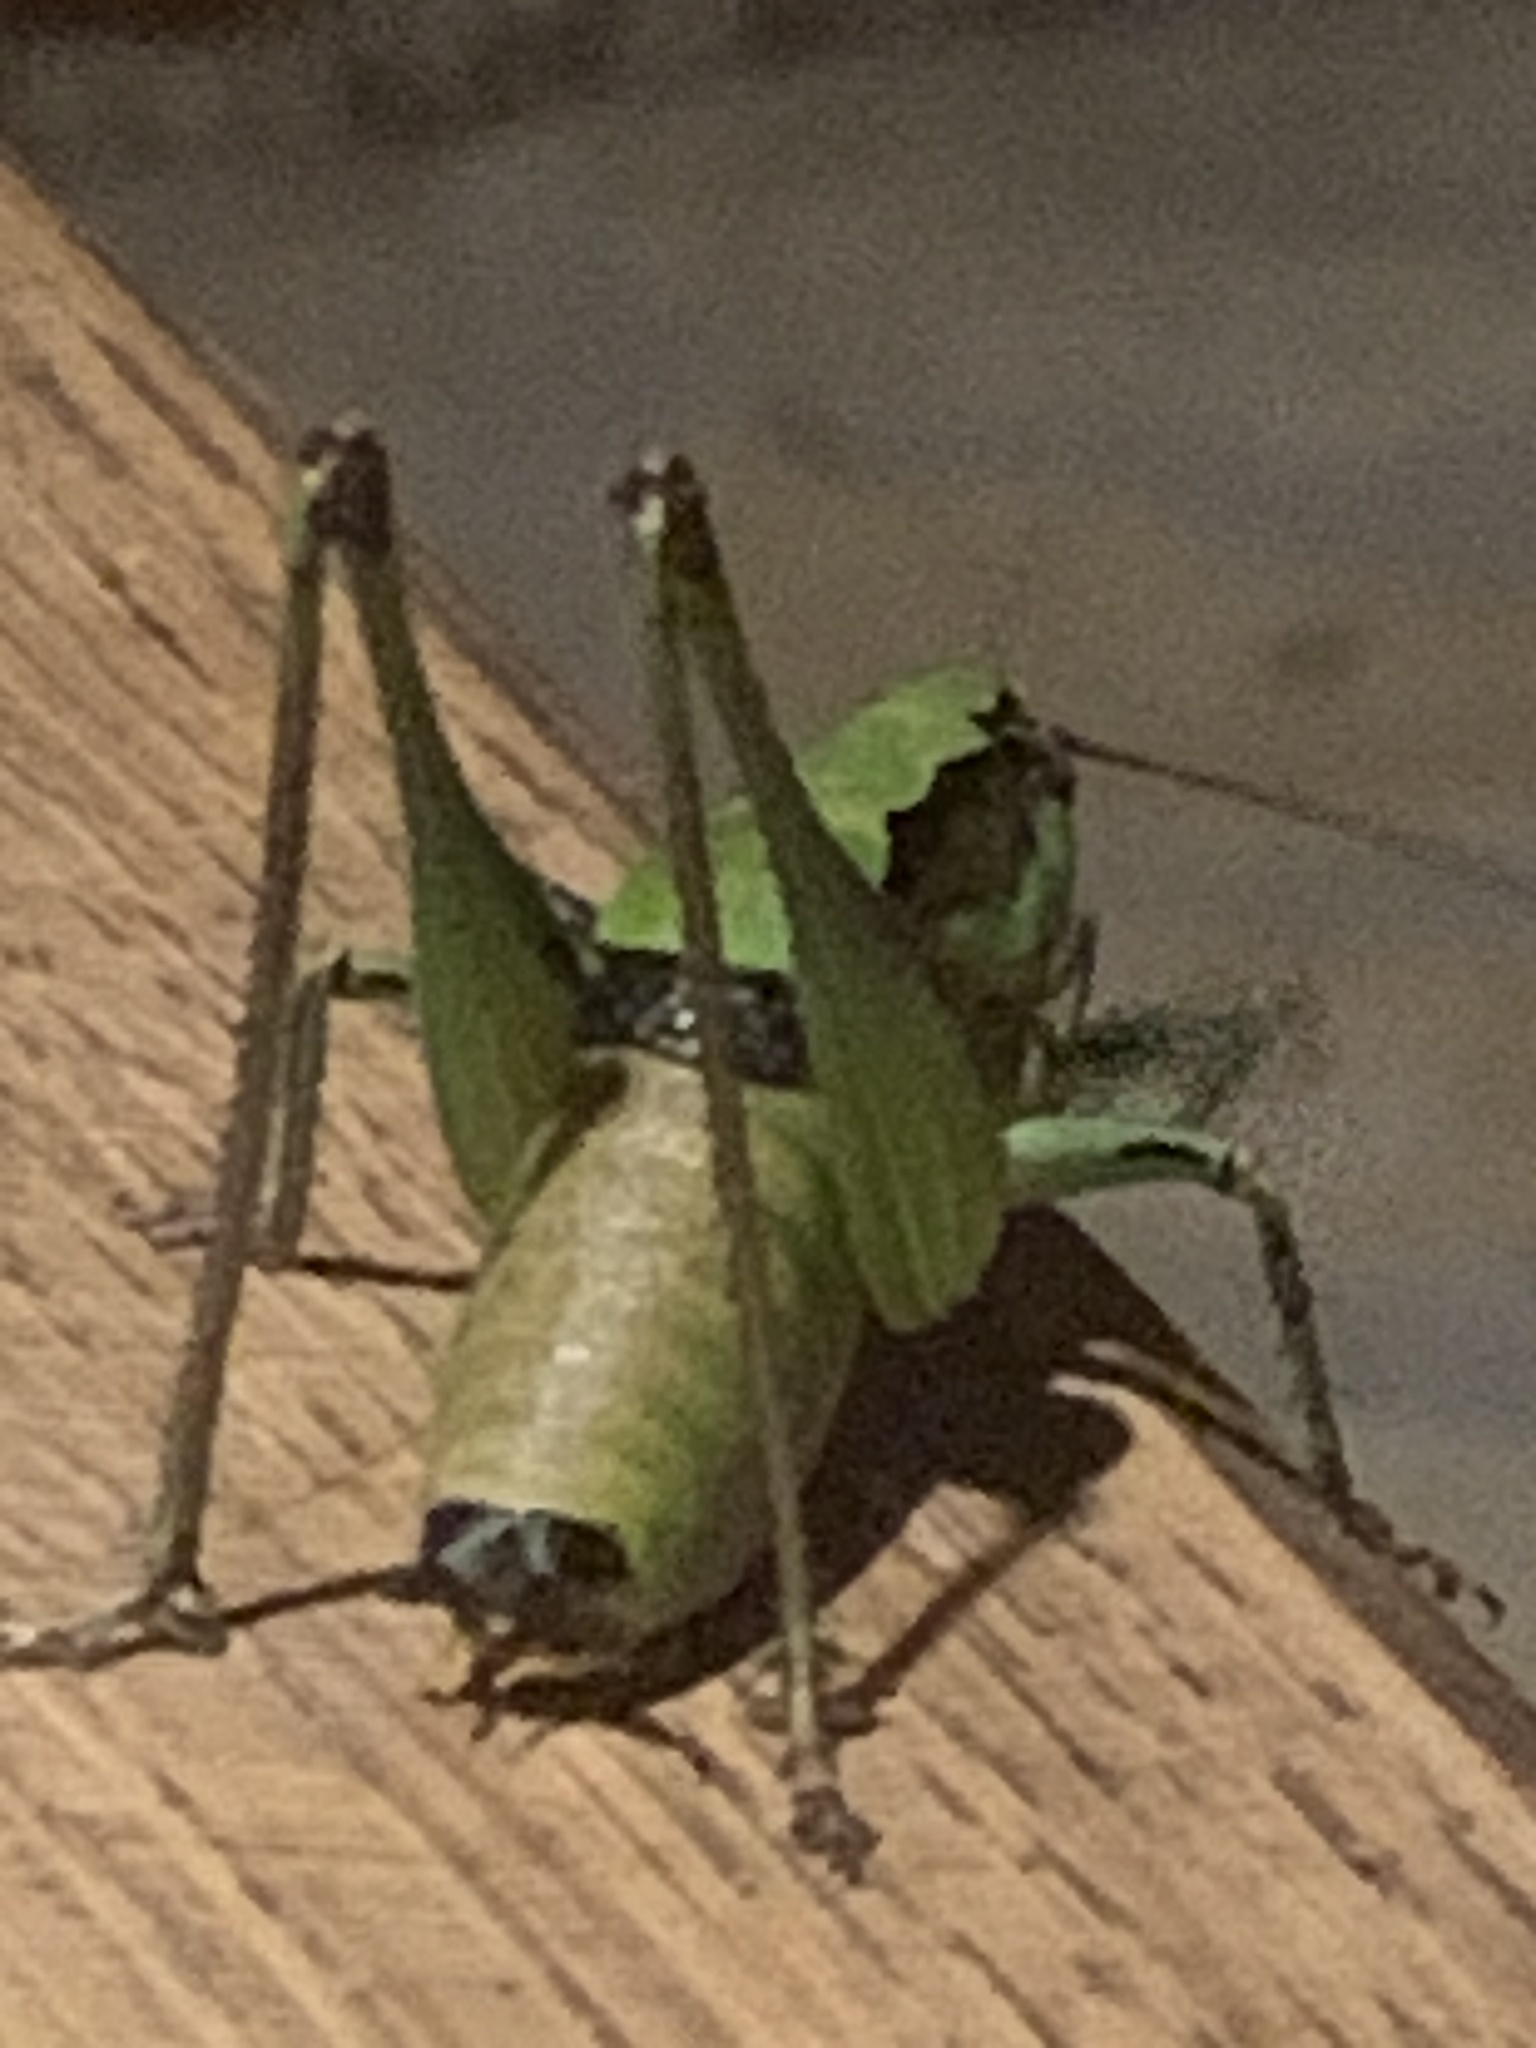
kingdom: Animalia
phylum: Arthropoda
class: Insecta
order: Orthoptera
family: Tettigoniidae
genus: Eupholidoptera
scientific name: Eupholidoptera schmidti
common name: Schmidt's marbled bush-cricket
